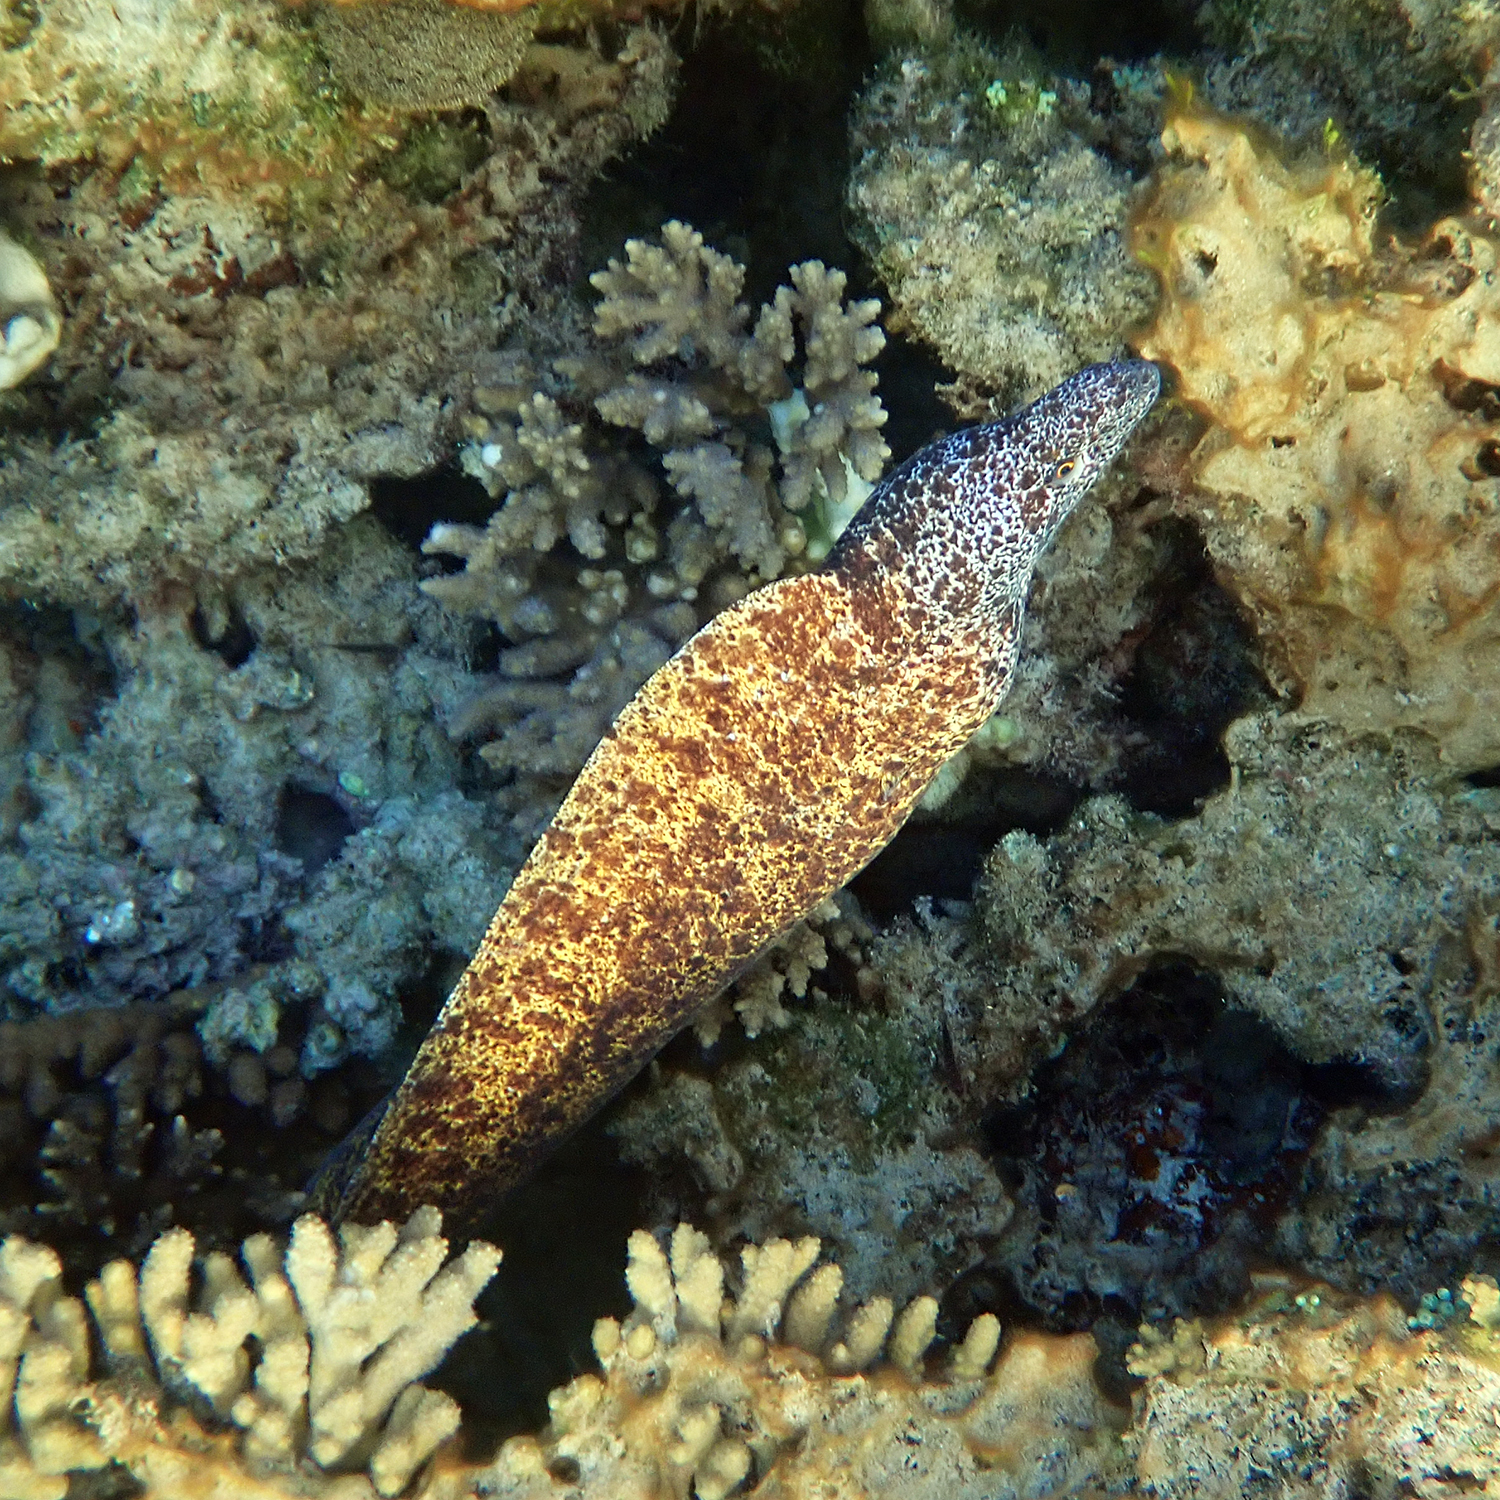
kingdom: Animalia
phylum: Chordata
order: Anguilliformes
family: Muraenidae
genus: Gymnothorax
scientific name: Gymnothorax annasona
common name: Lord howe island moray
